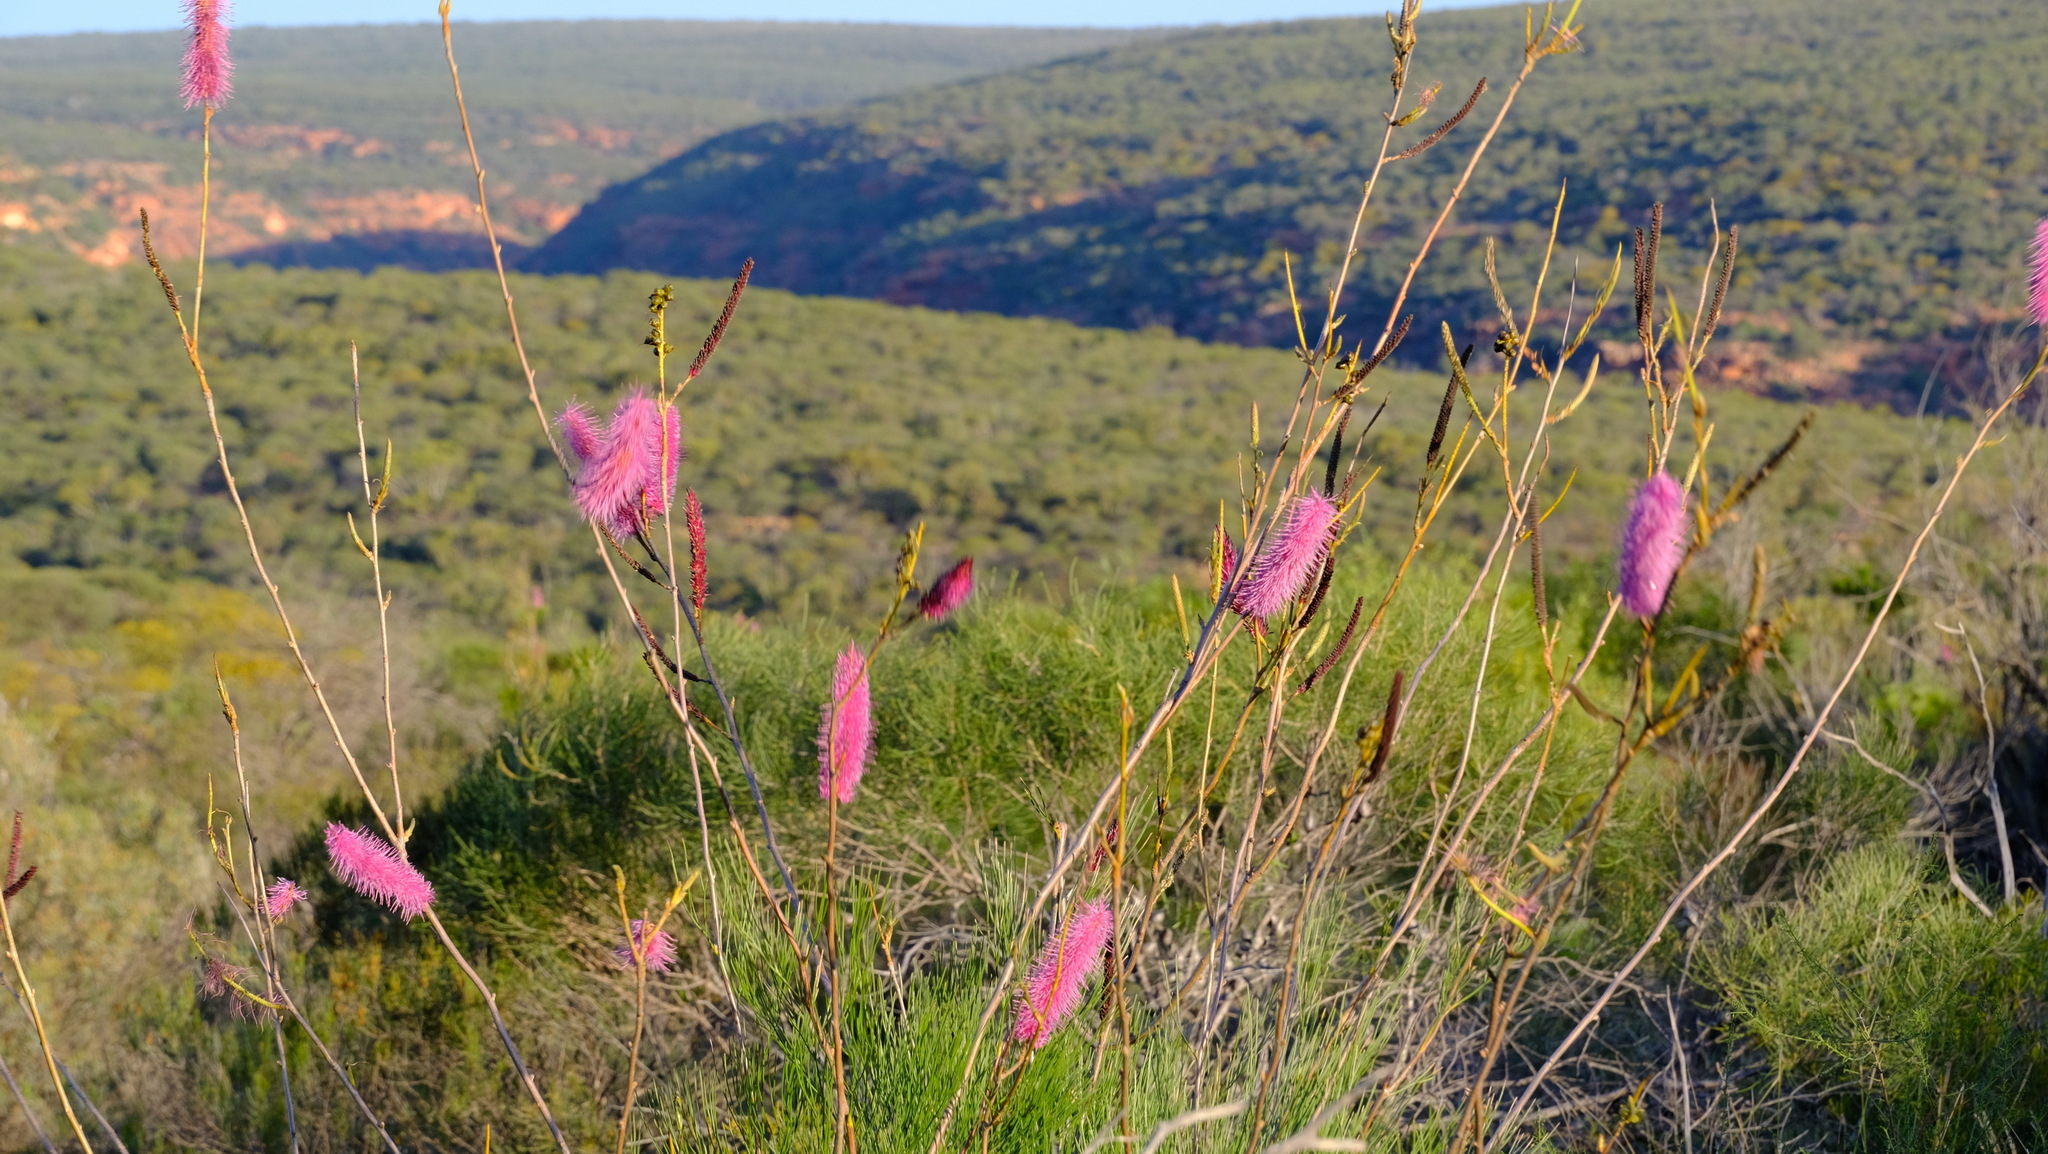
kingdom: Plantae
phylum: Tracheophyta
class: Magnoliopsida
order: Proteales
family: Proteaceae
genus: Grevillea
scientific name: Grevillea petrophiloides
